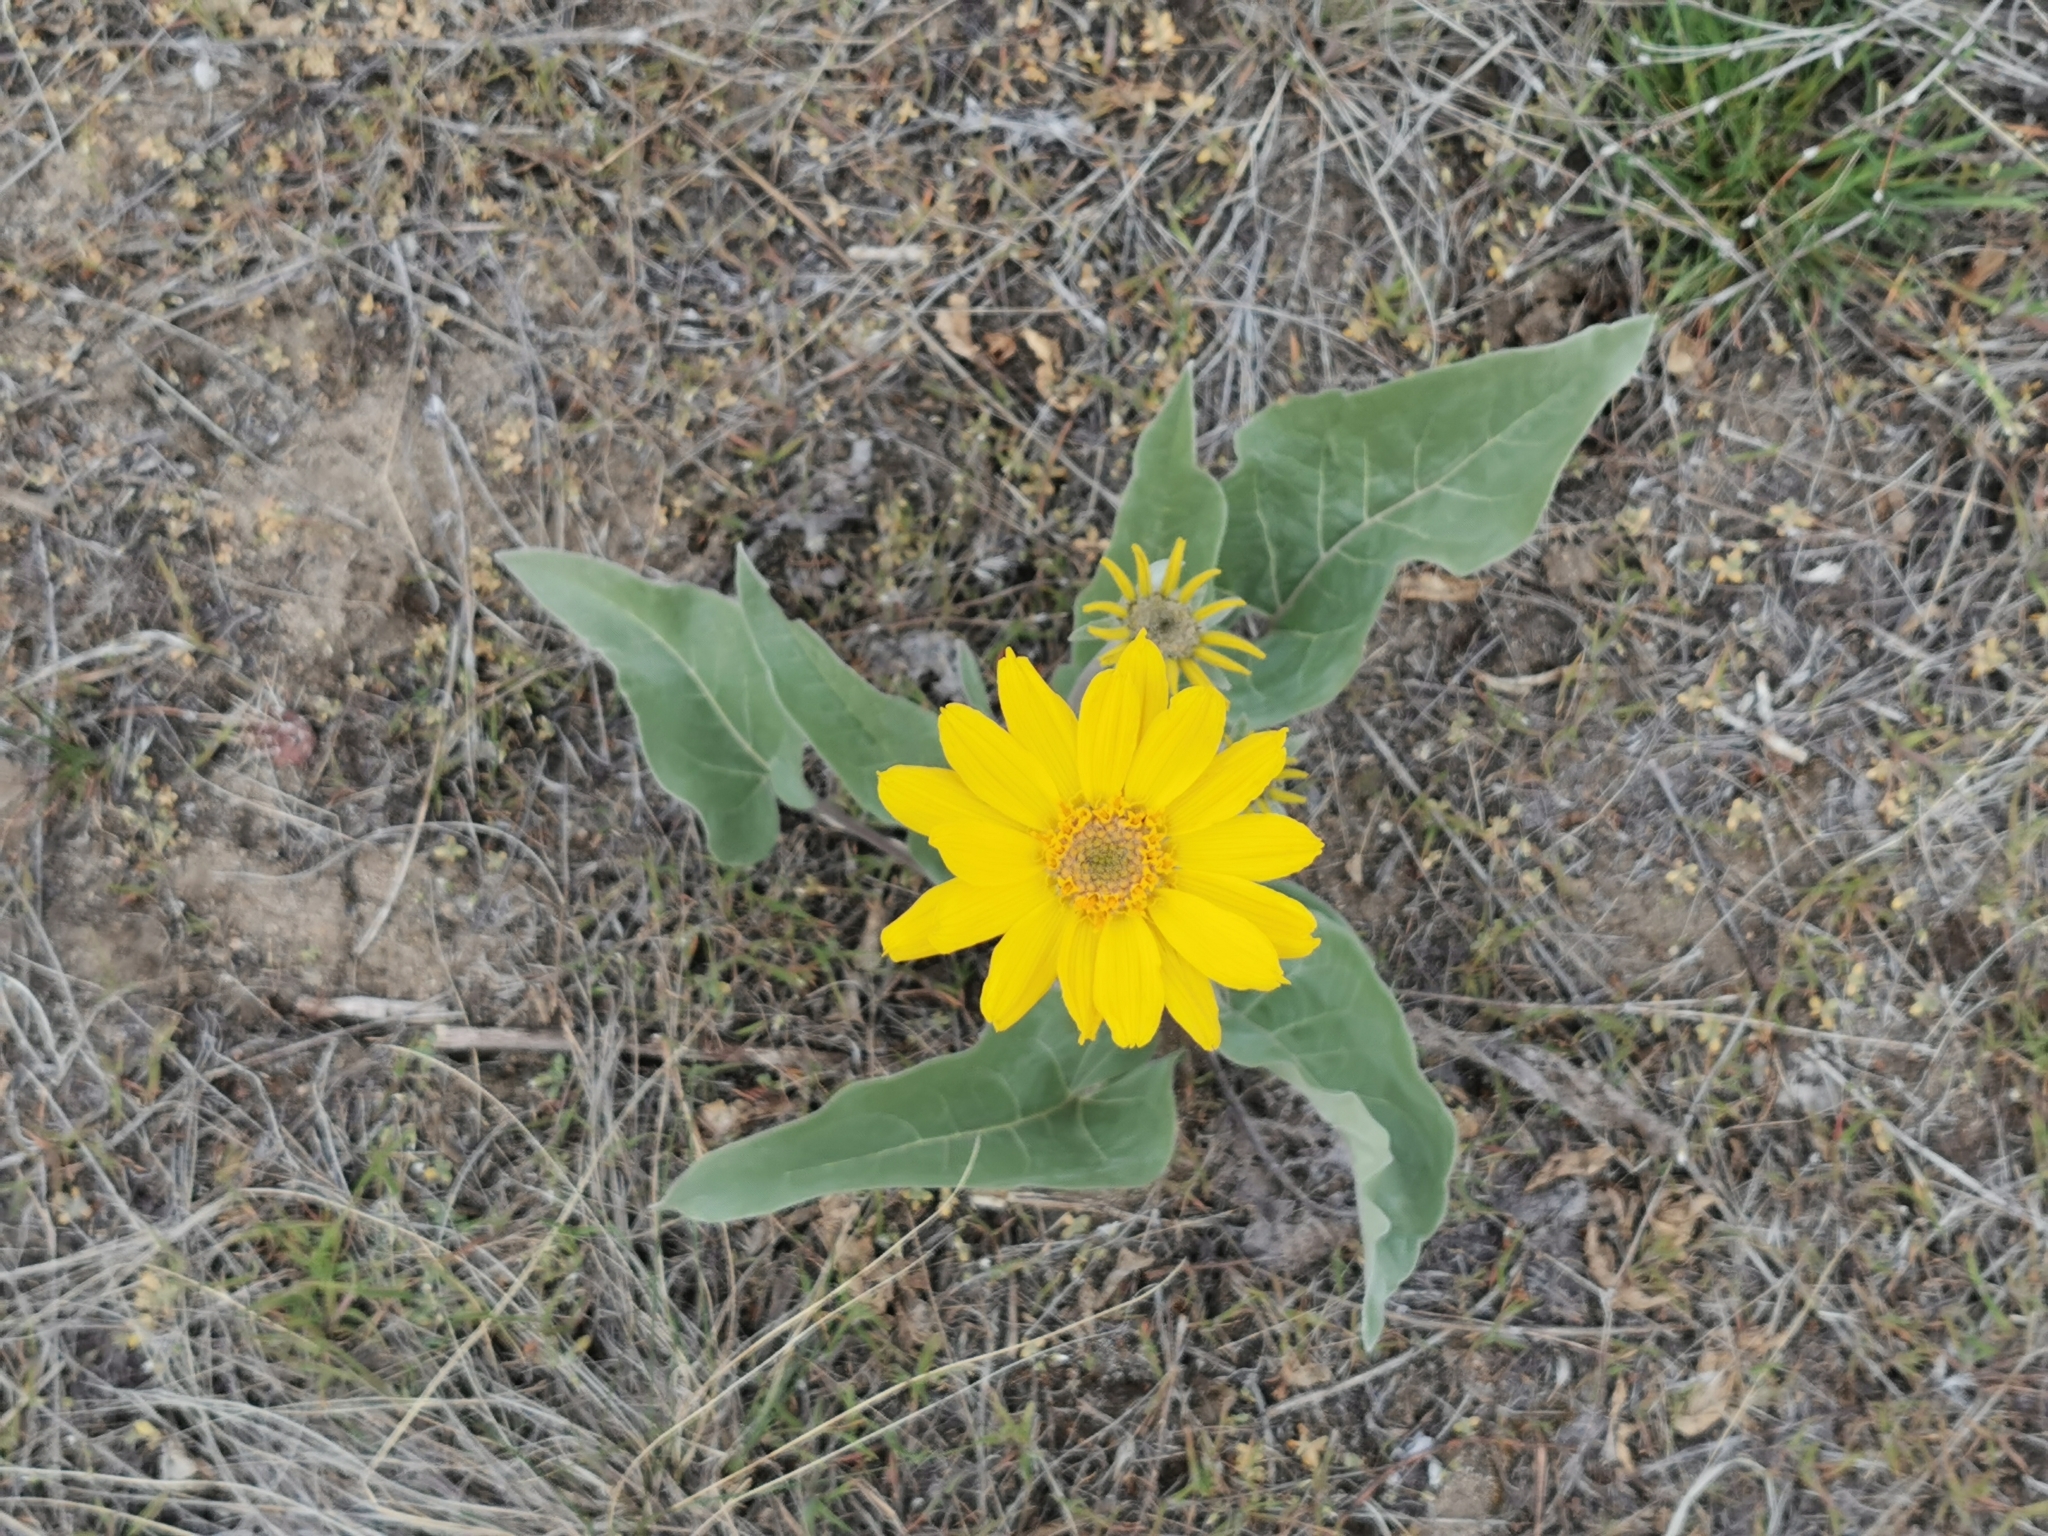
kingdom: Plantae
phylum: Tracheophyta
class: Magnoliopsida
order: Asterales
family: Asteraceae
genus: Wyethia
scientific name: Wyethia sagittata
